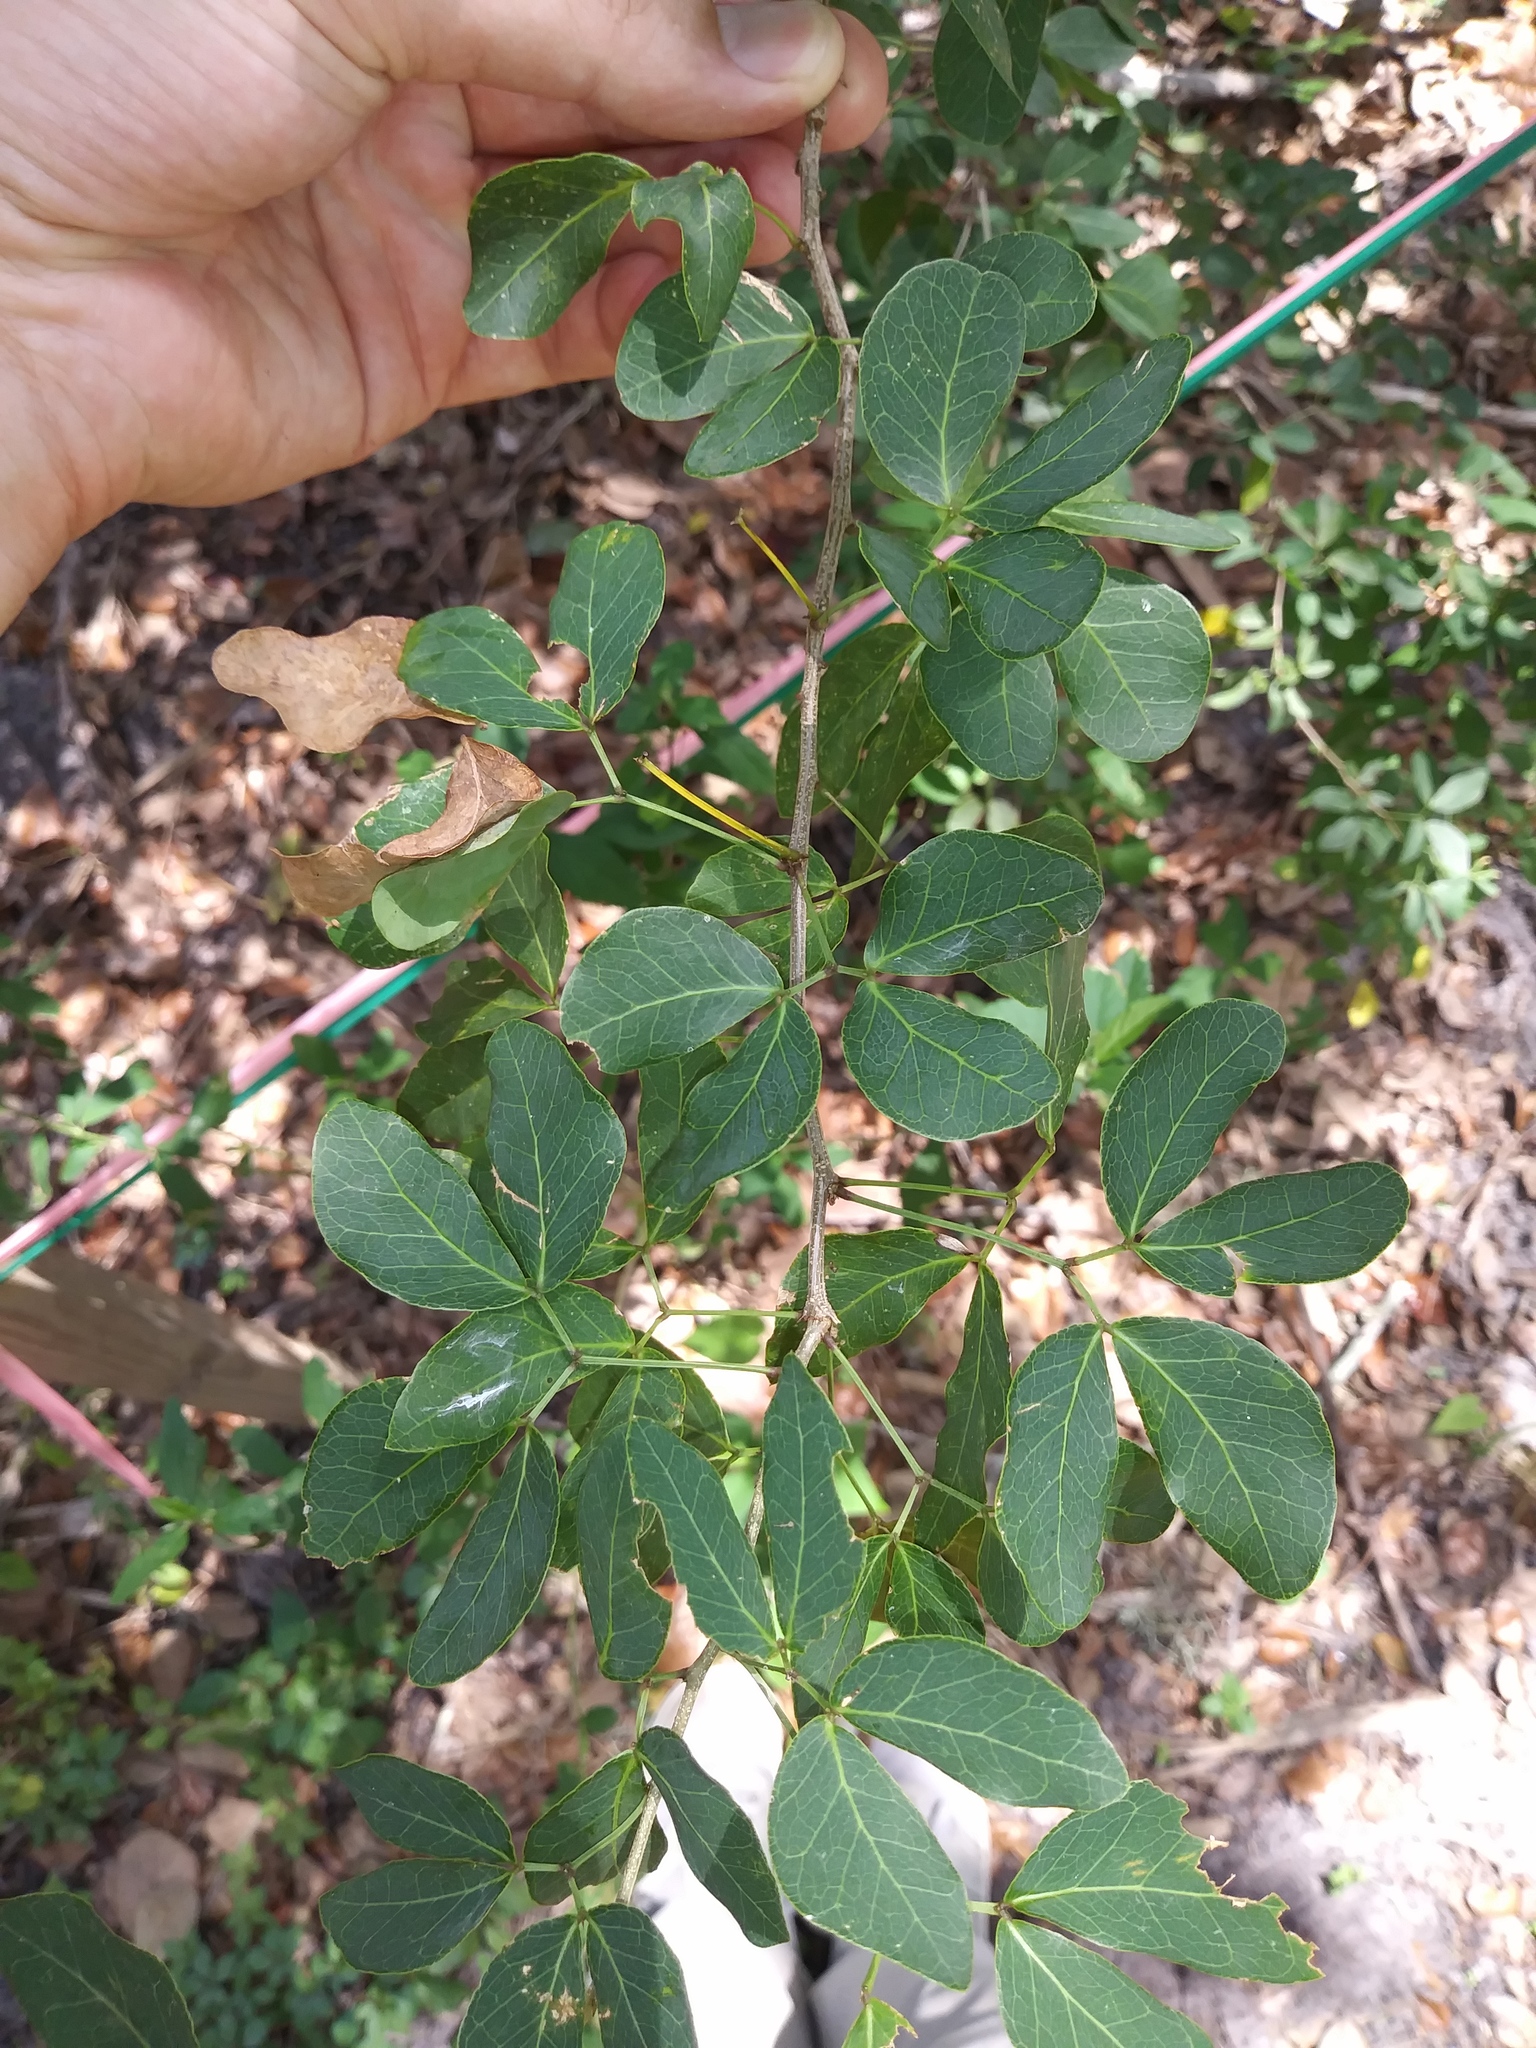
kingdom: Plantae
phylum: Tracheophyta
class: Magnoliopsida
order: Fabales
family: Fabaceae
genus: Pithecellobium
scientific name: Pithecellobium unguis-cati
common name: Cat's-claw
